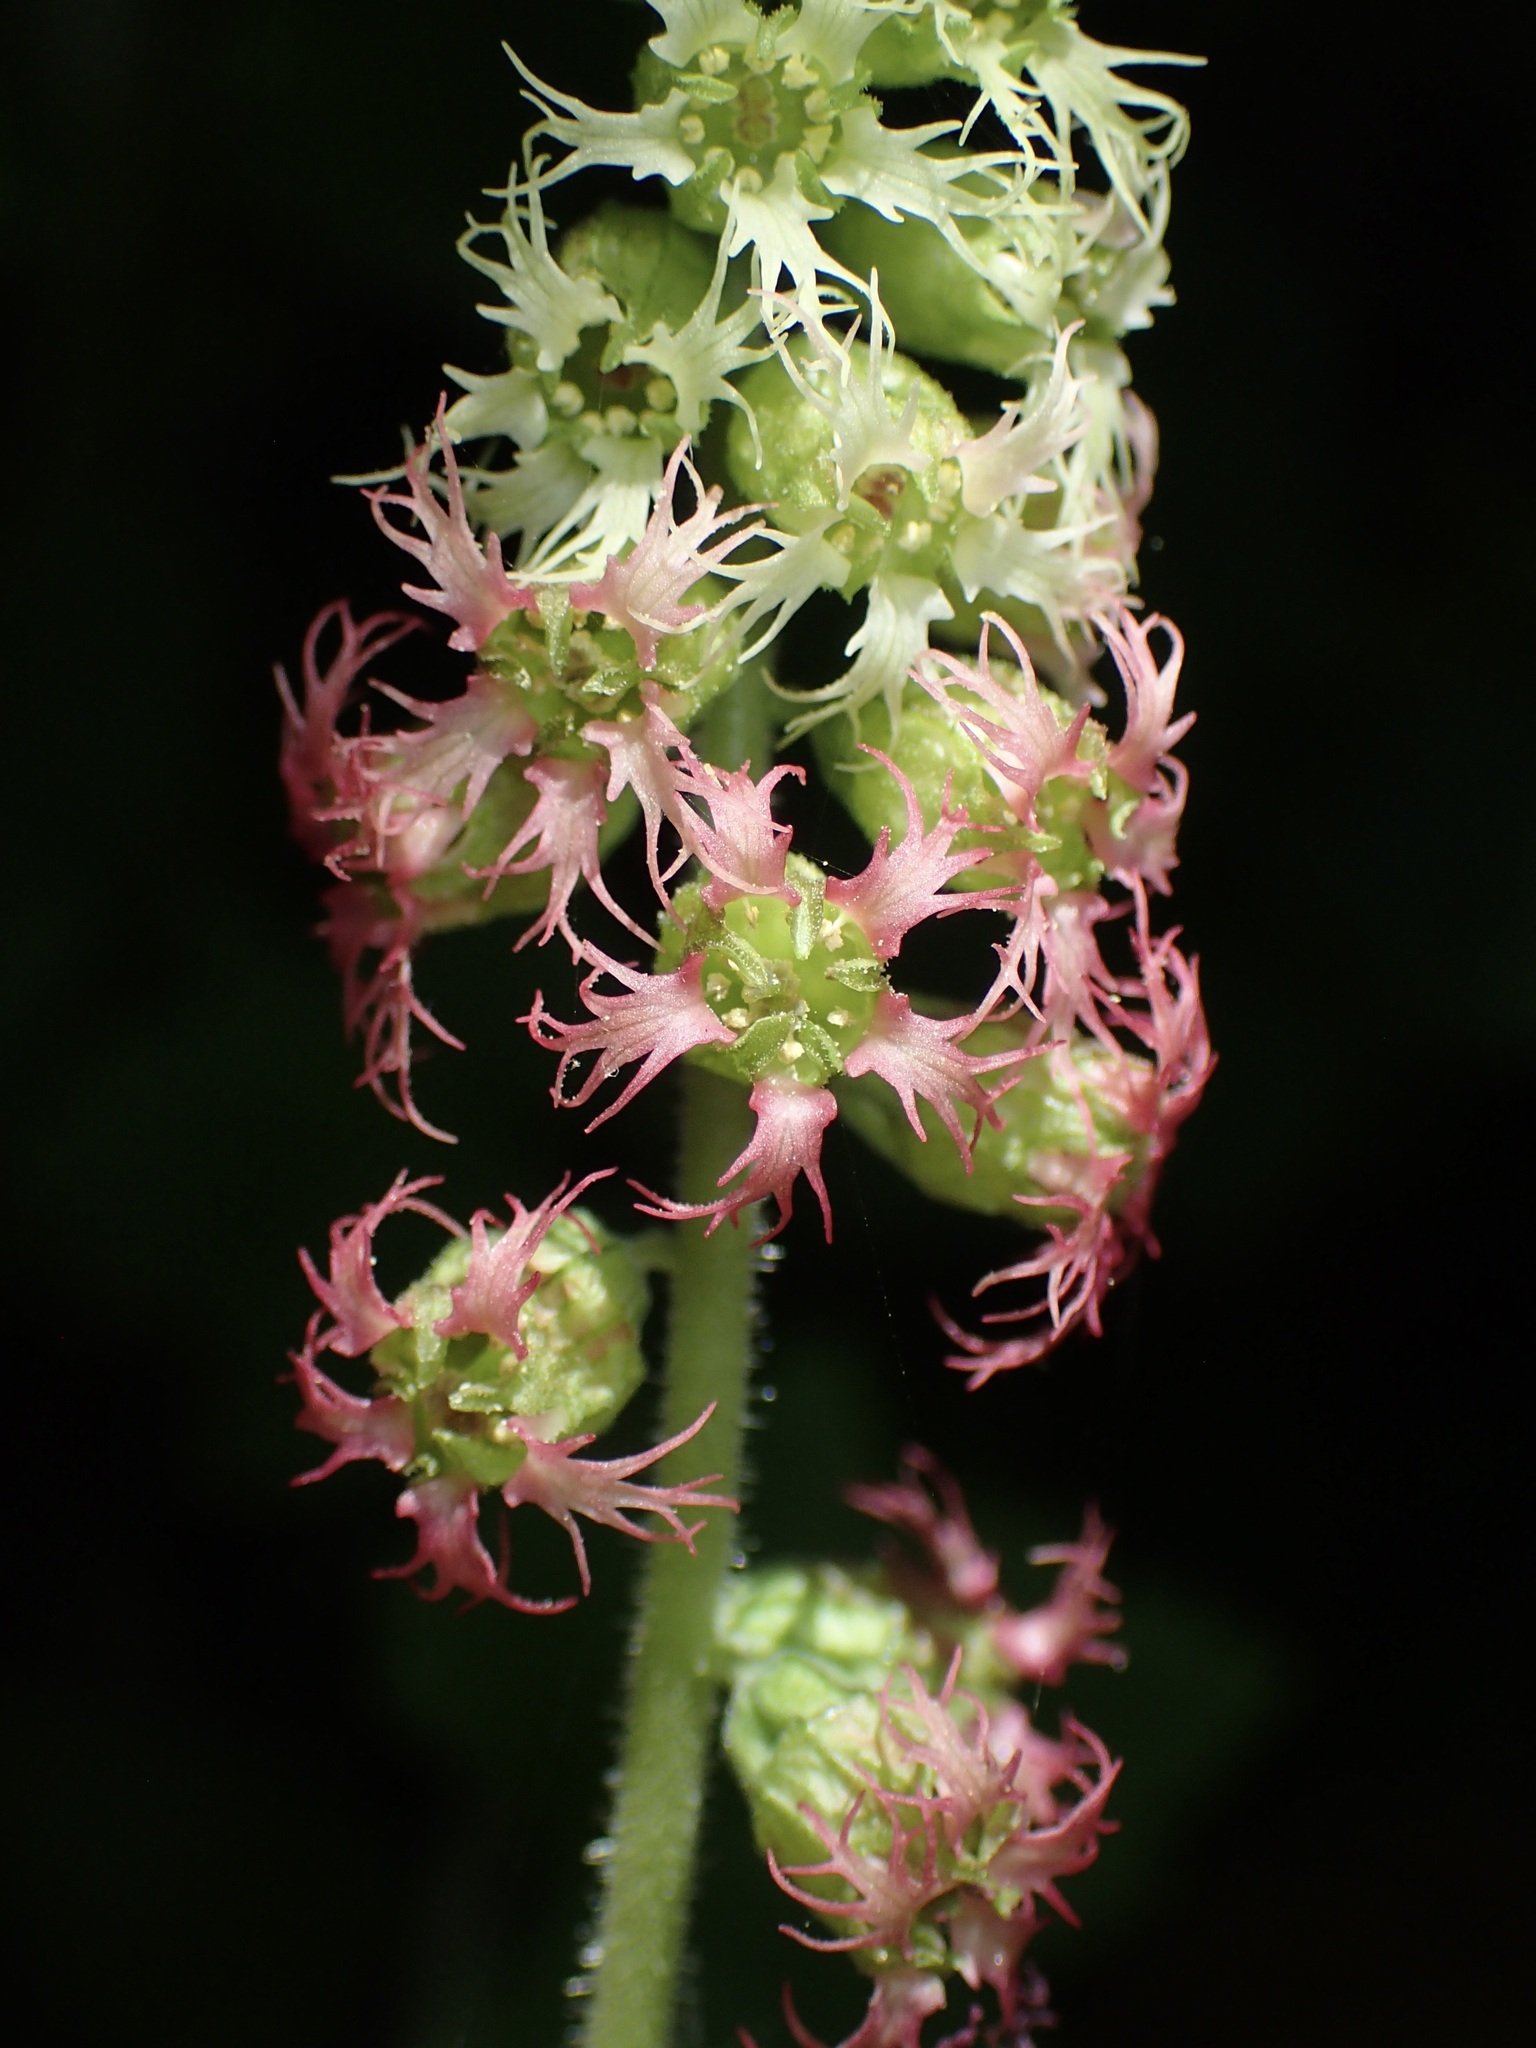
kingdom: Plantae
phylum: Tracheophyta
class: Magnoliopsida
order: Saxifragales
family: Saxifragaceae
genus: Tellima
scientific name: Tellima grandiflora
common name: Fringecups
